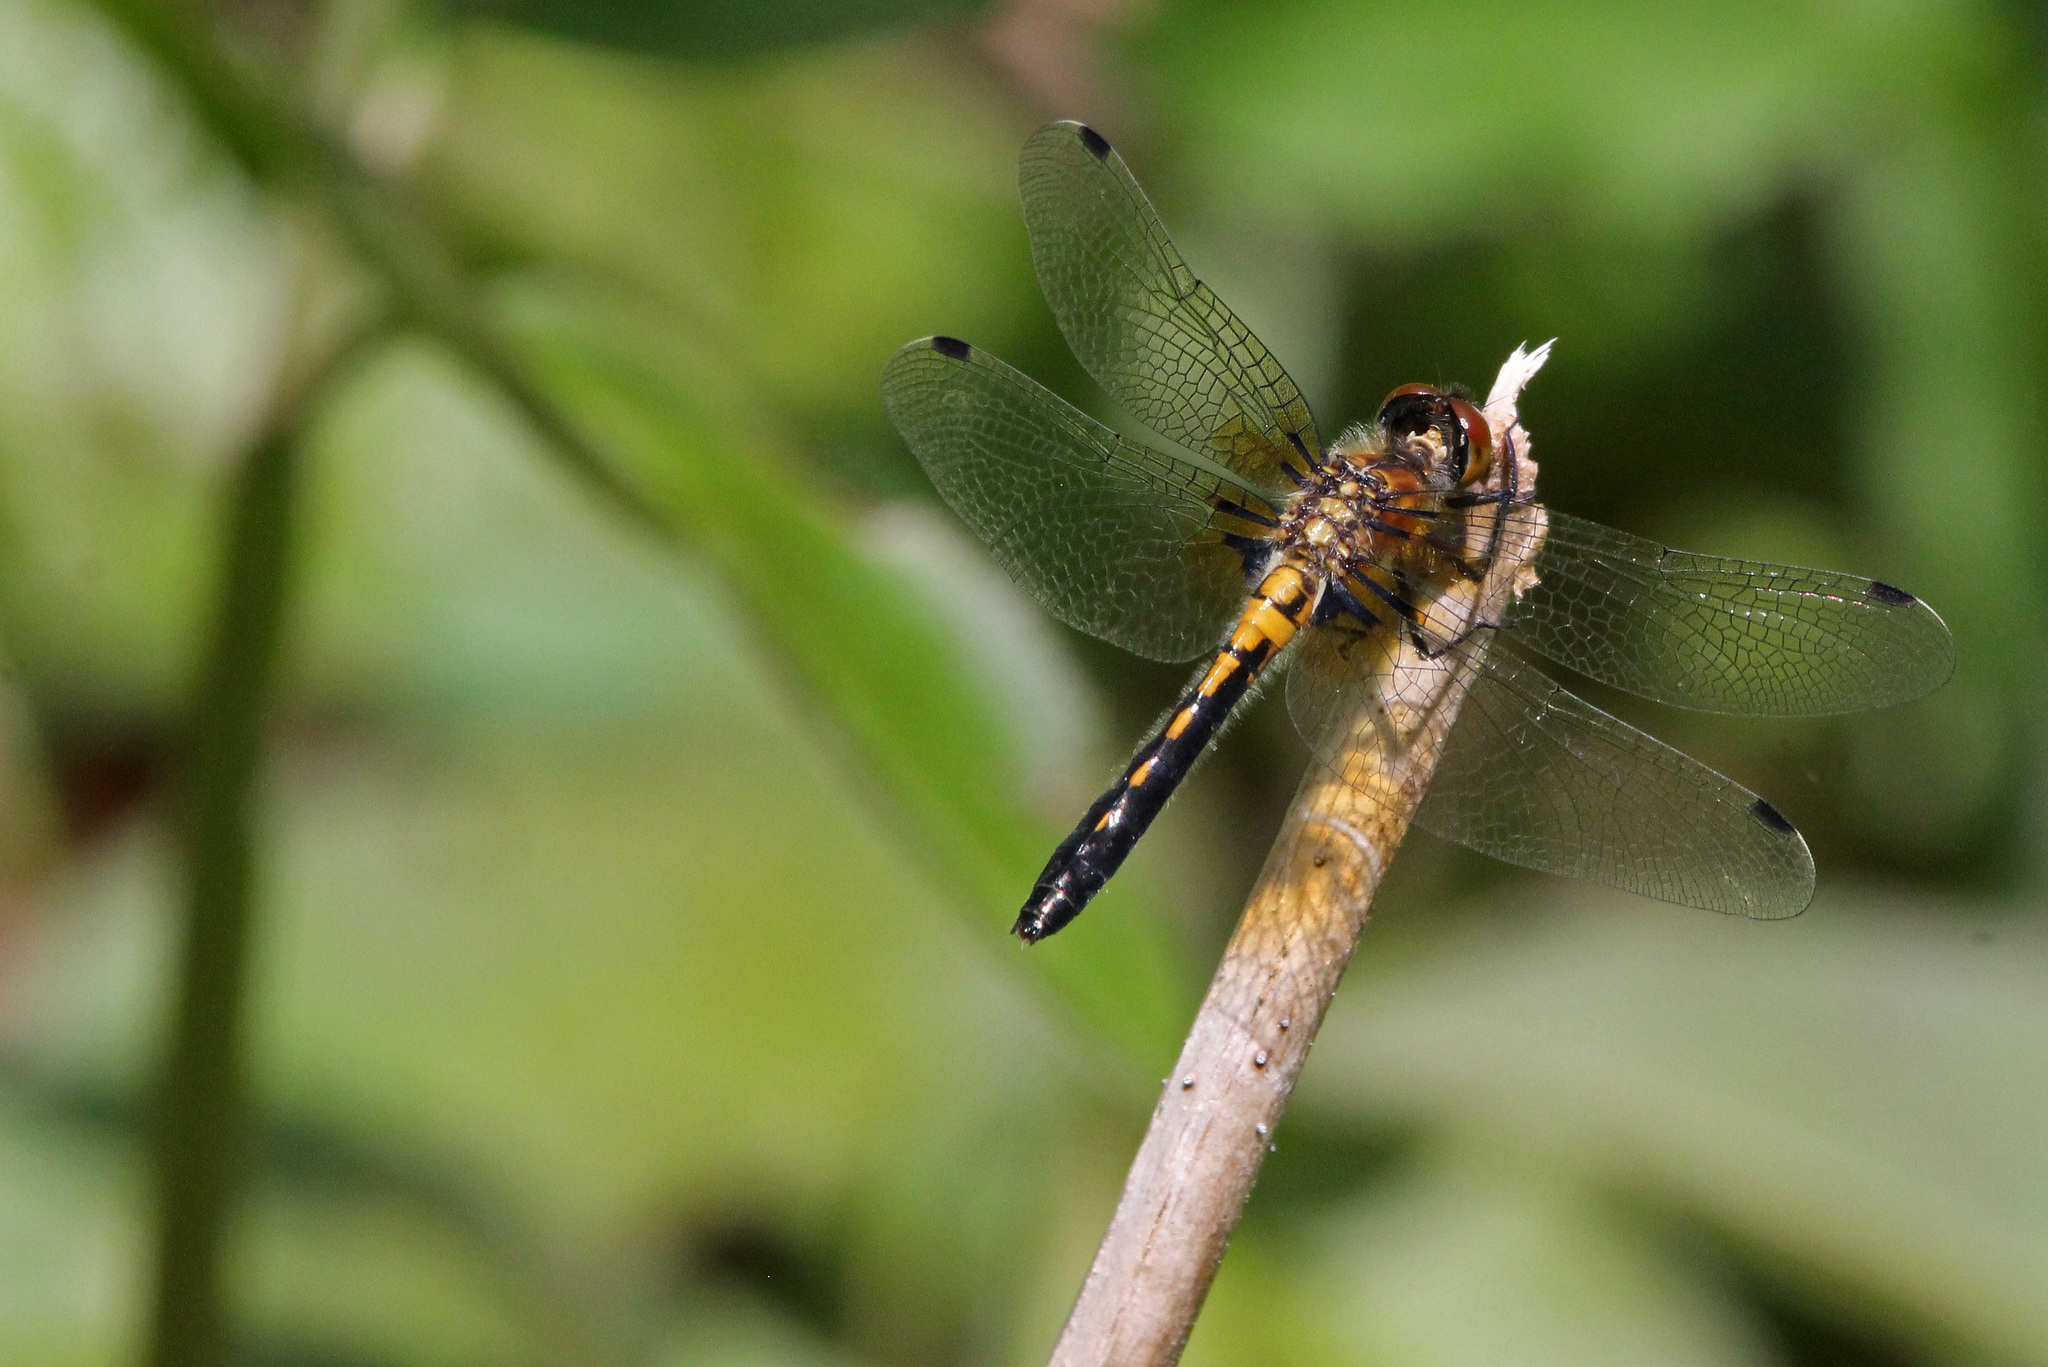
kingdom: Animalia
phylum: Arthropoda
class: Insecta
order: Odonata
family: Libellulidae
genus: Leucorrhinia
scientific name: Leucorrhinia frigida
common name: Frosted whiteface
